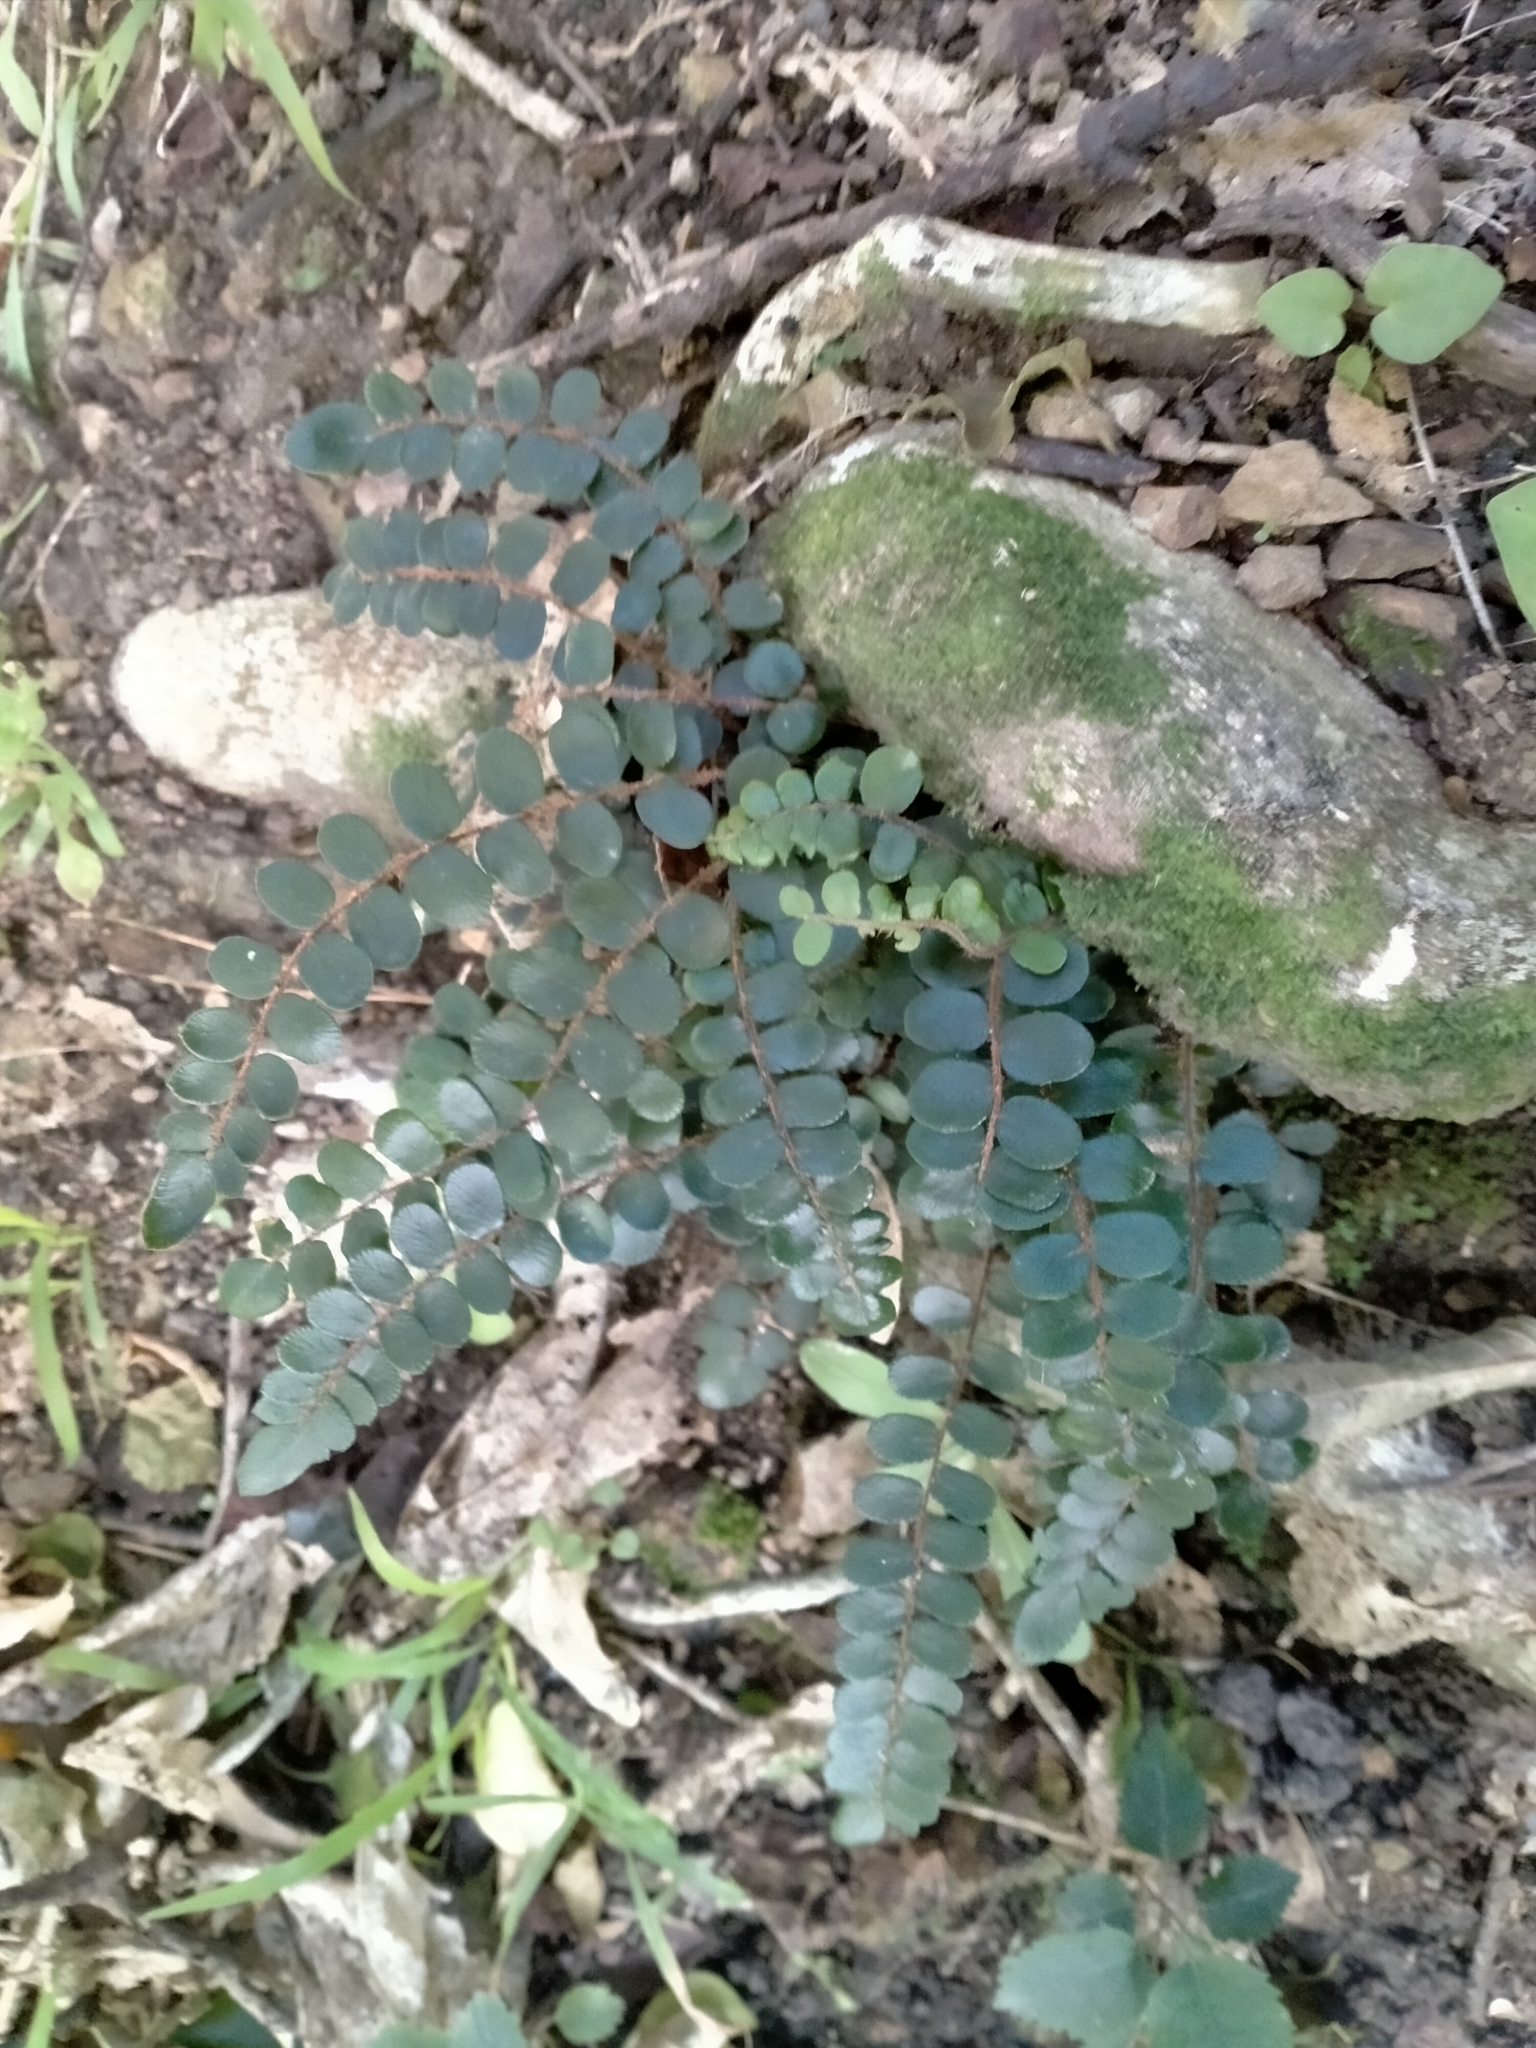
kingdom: Plantae
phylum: Tracheophyta
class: Polypodiopsida
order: Polypodiales
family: Pteridaceae
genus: Pellaea
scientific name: Pellaea rotundifolia
